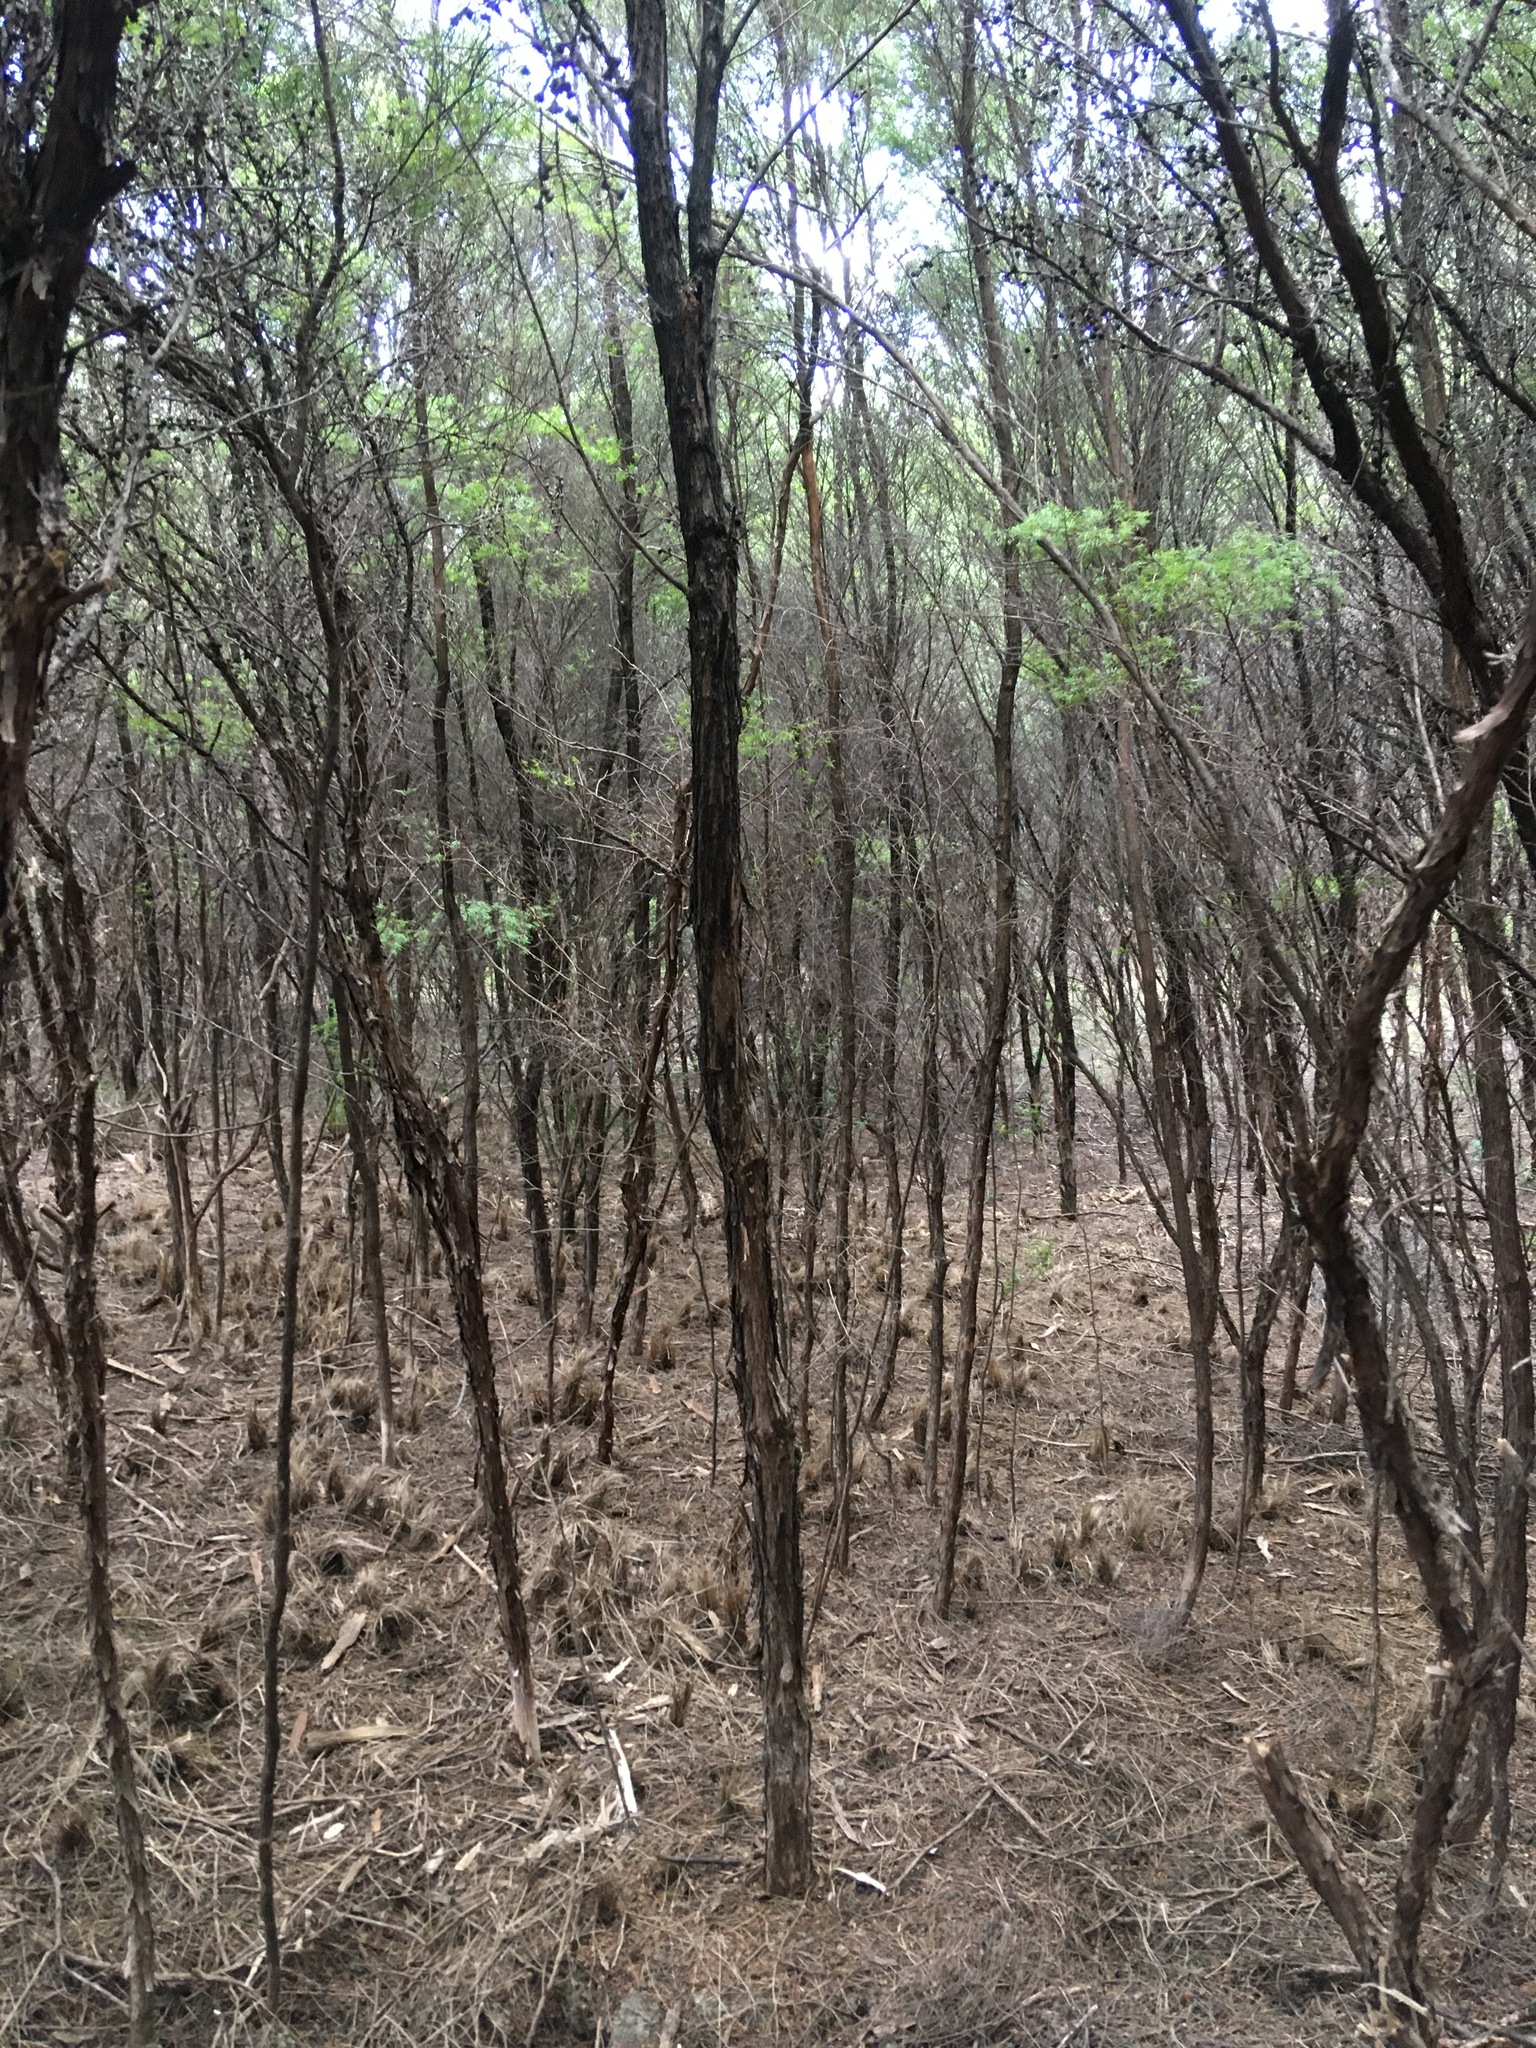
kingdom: Plantae
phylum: Tracheophyta
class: Liliopsida
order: Asparagales
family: Iridaceae
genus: Watsonia
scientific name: Watsonia meriana
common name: Bulbil bugle-lily
